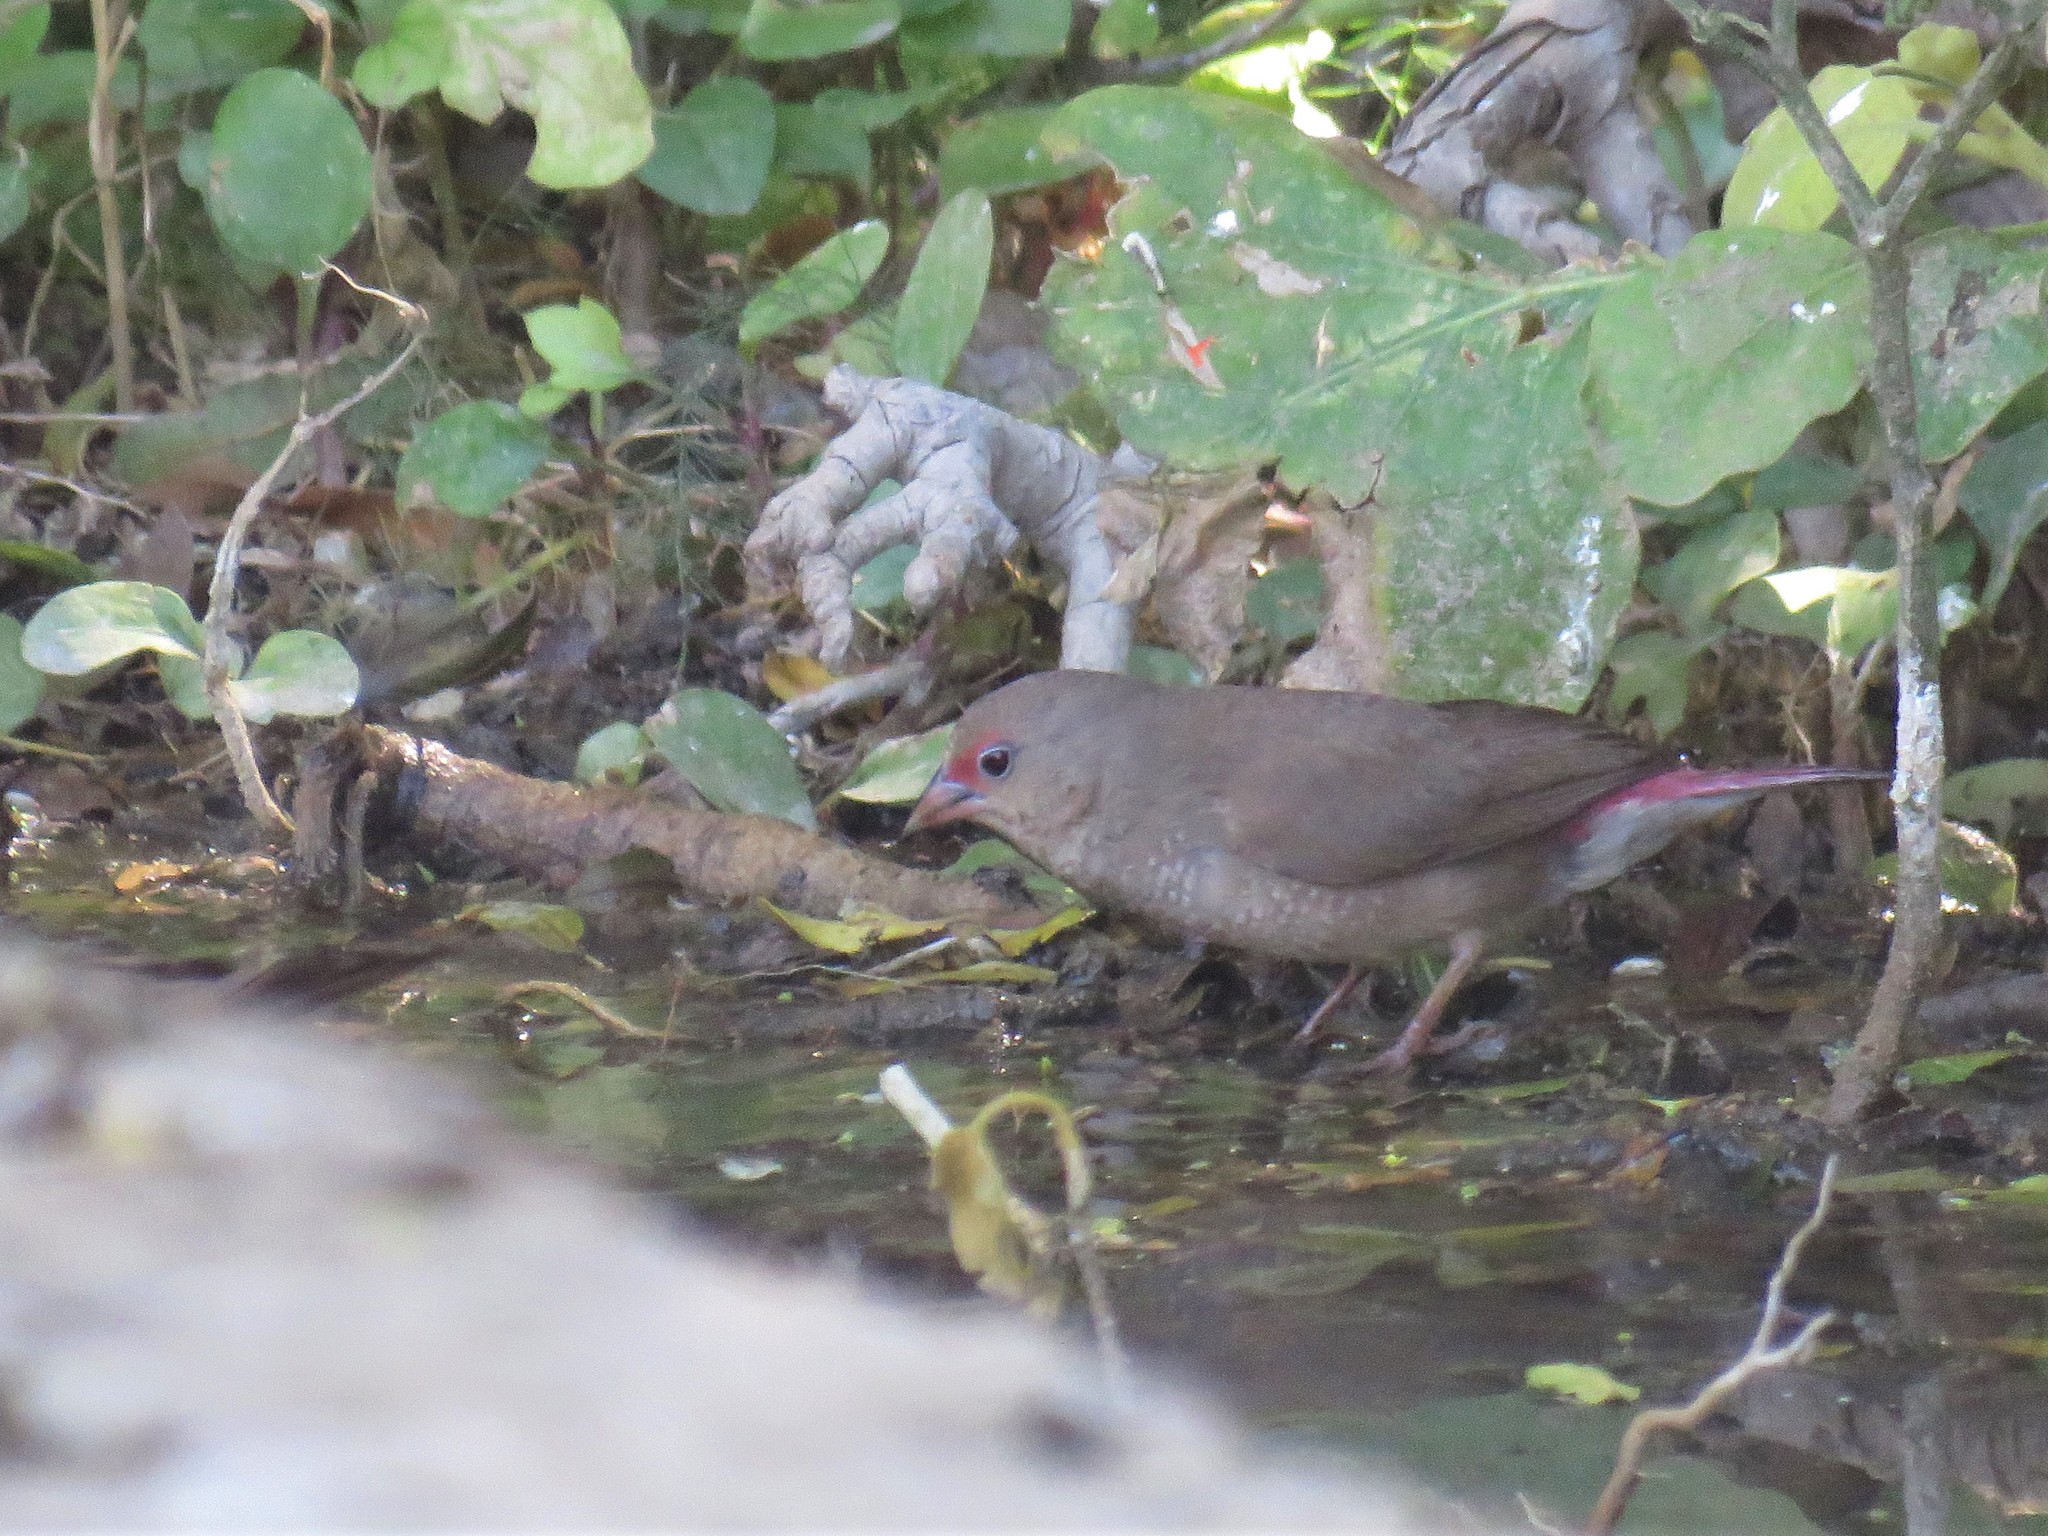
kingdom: Animalia
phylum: Chordata
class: Aves
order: Passeriformes
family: Estrildidae
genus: Lagonosticta
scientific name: Lagonosticta senegala
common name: Red-billed firefinch
